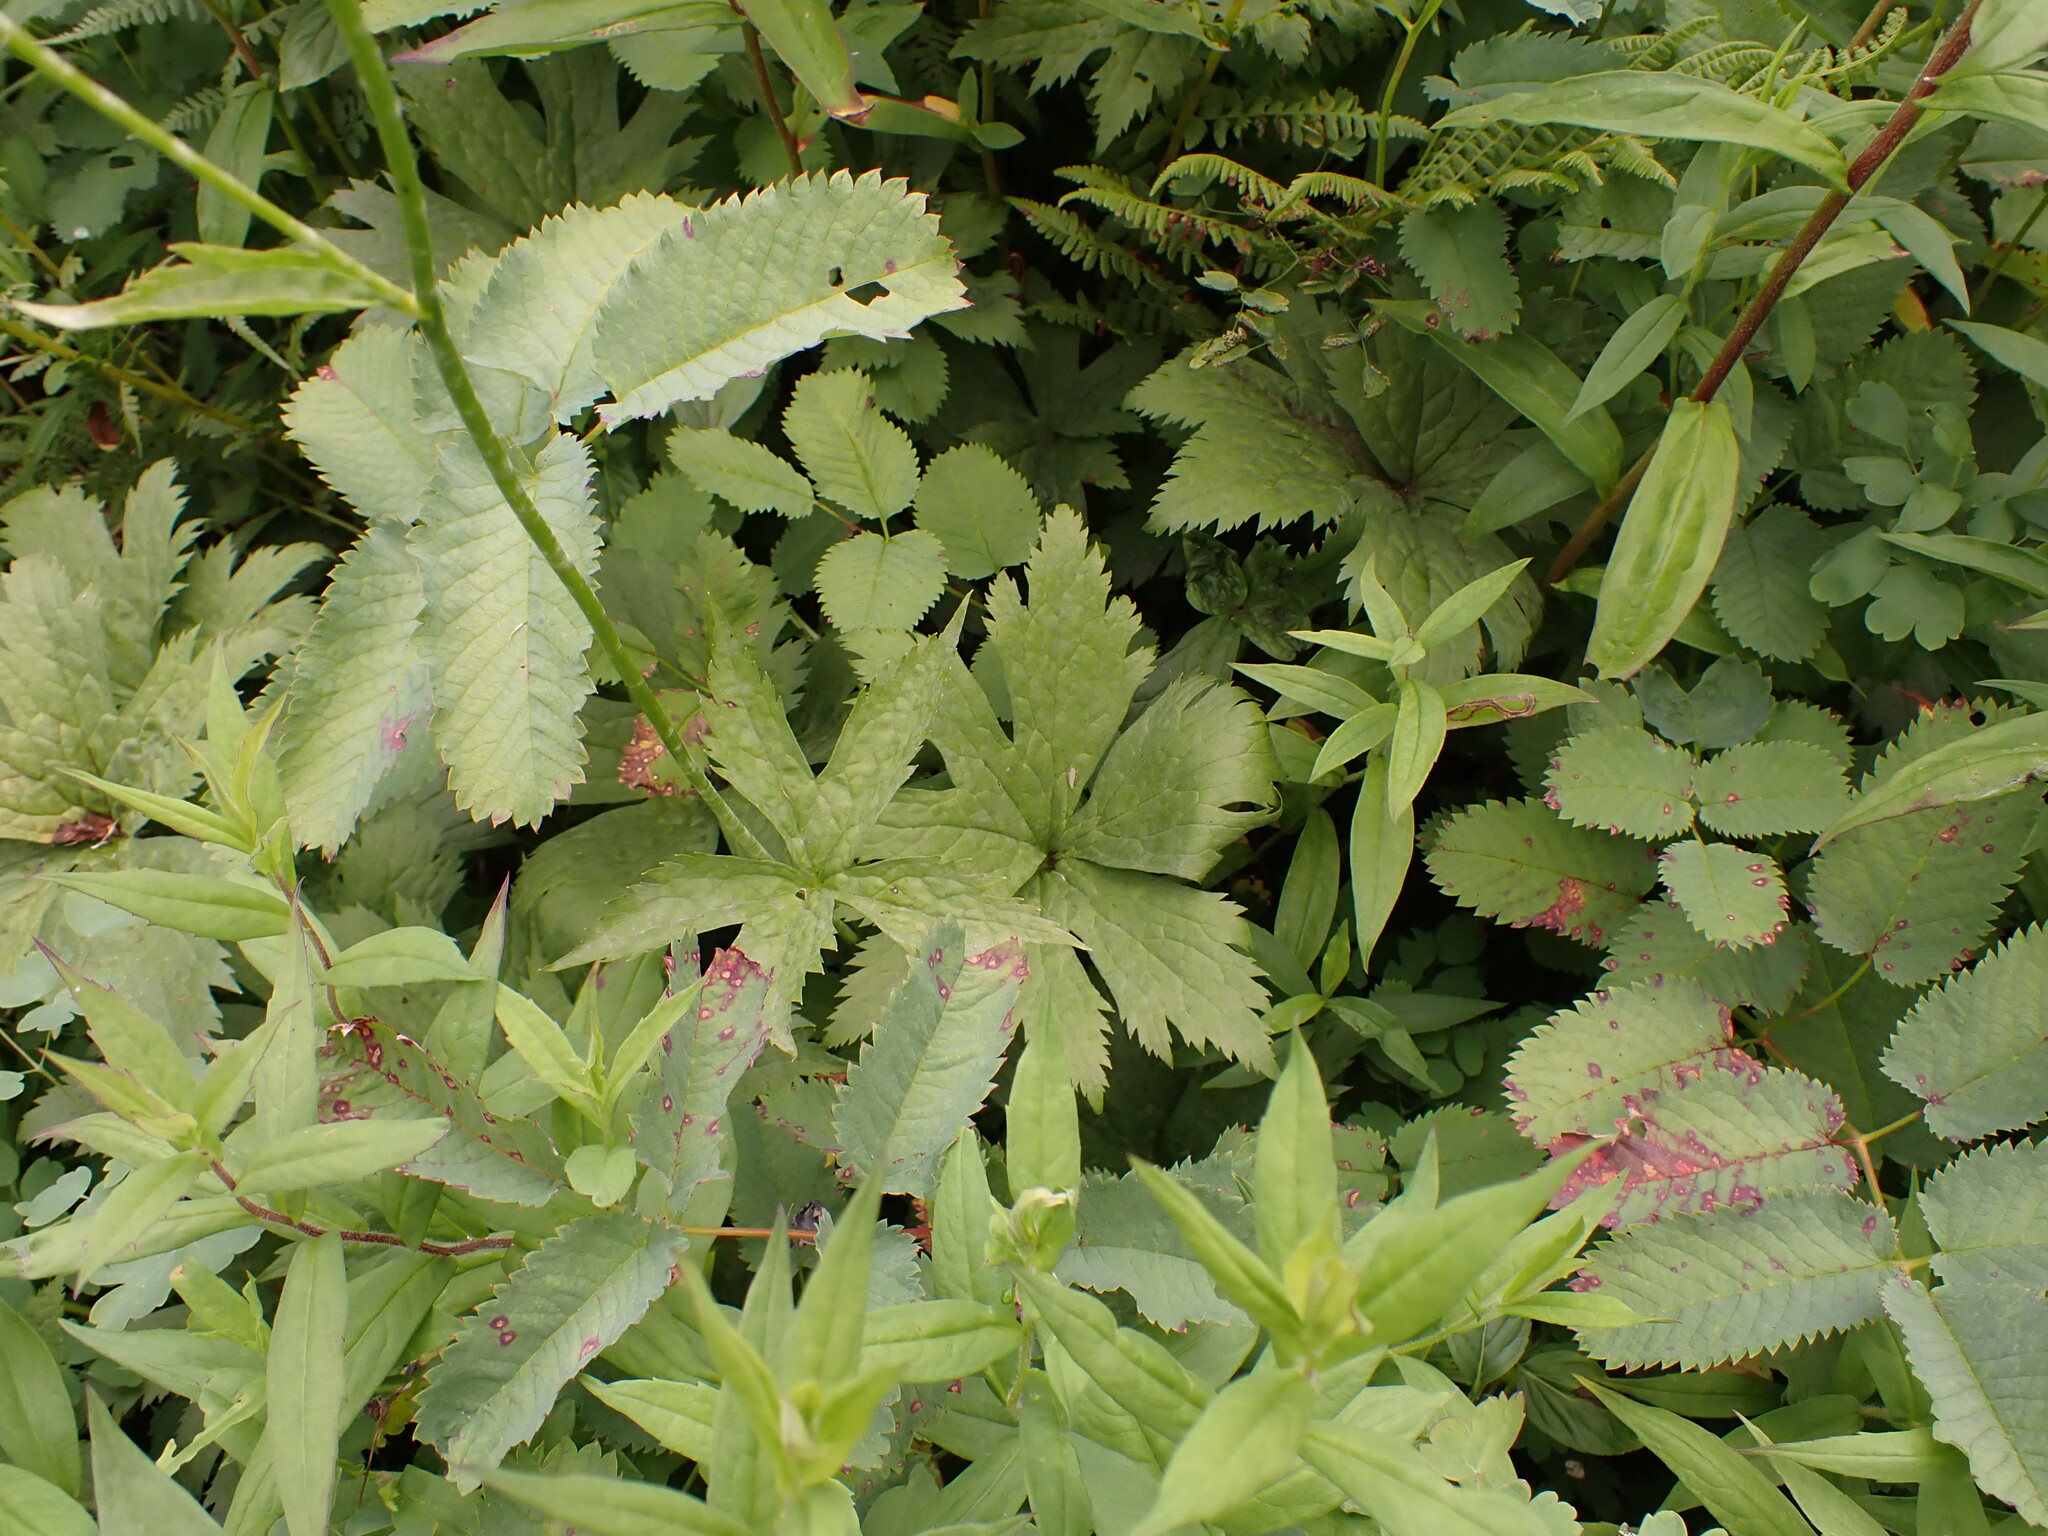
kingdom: Plantae
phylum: Tracheophyta
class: Magnoliopsida
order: Ranunculales
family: Ranunculaceae
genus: Trautvetteria
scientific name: Trautvetteria carolinensis
